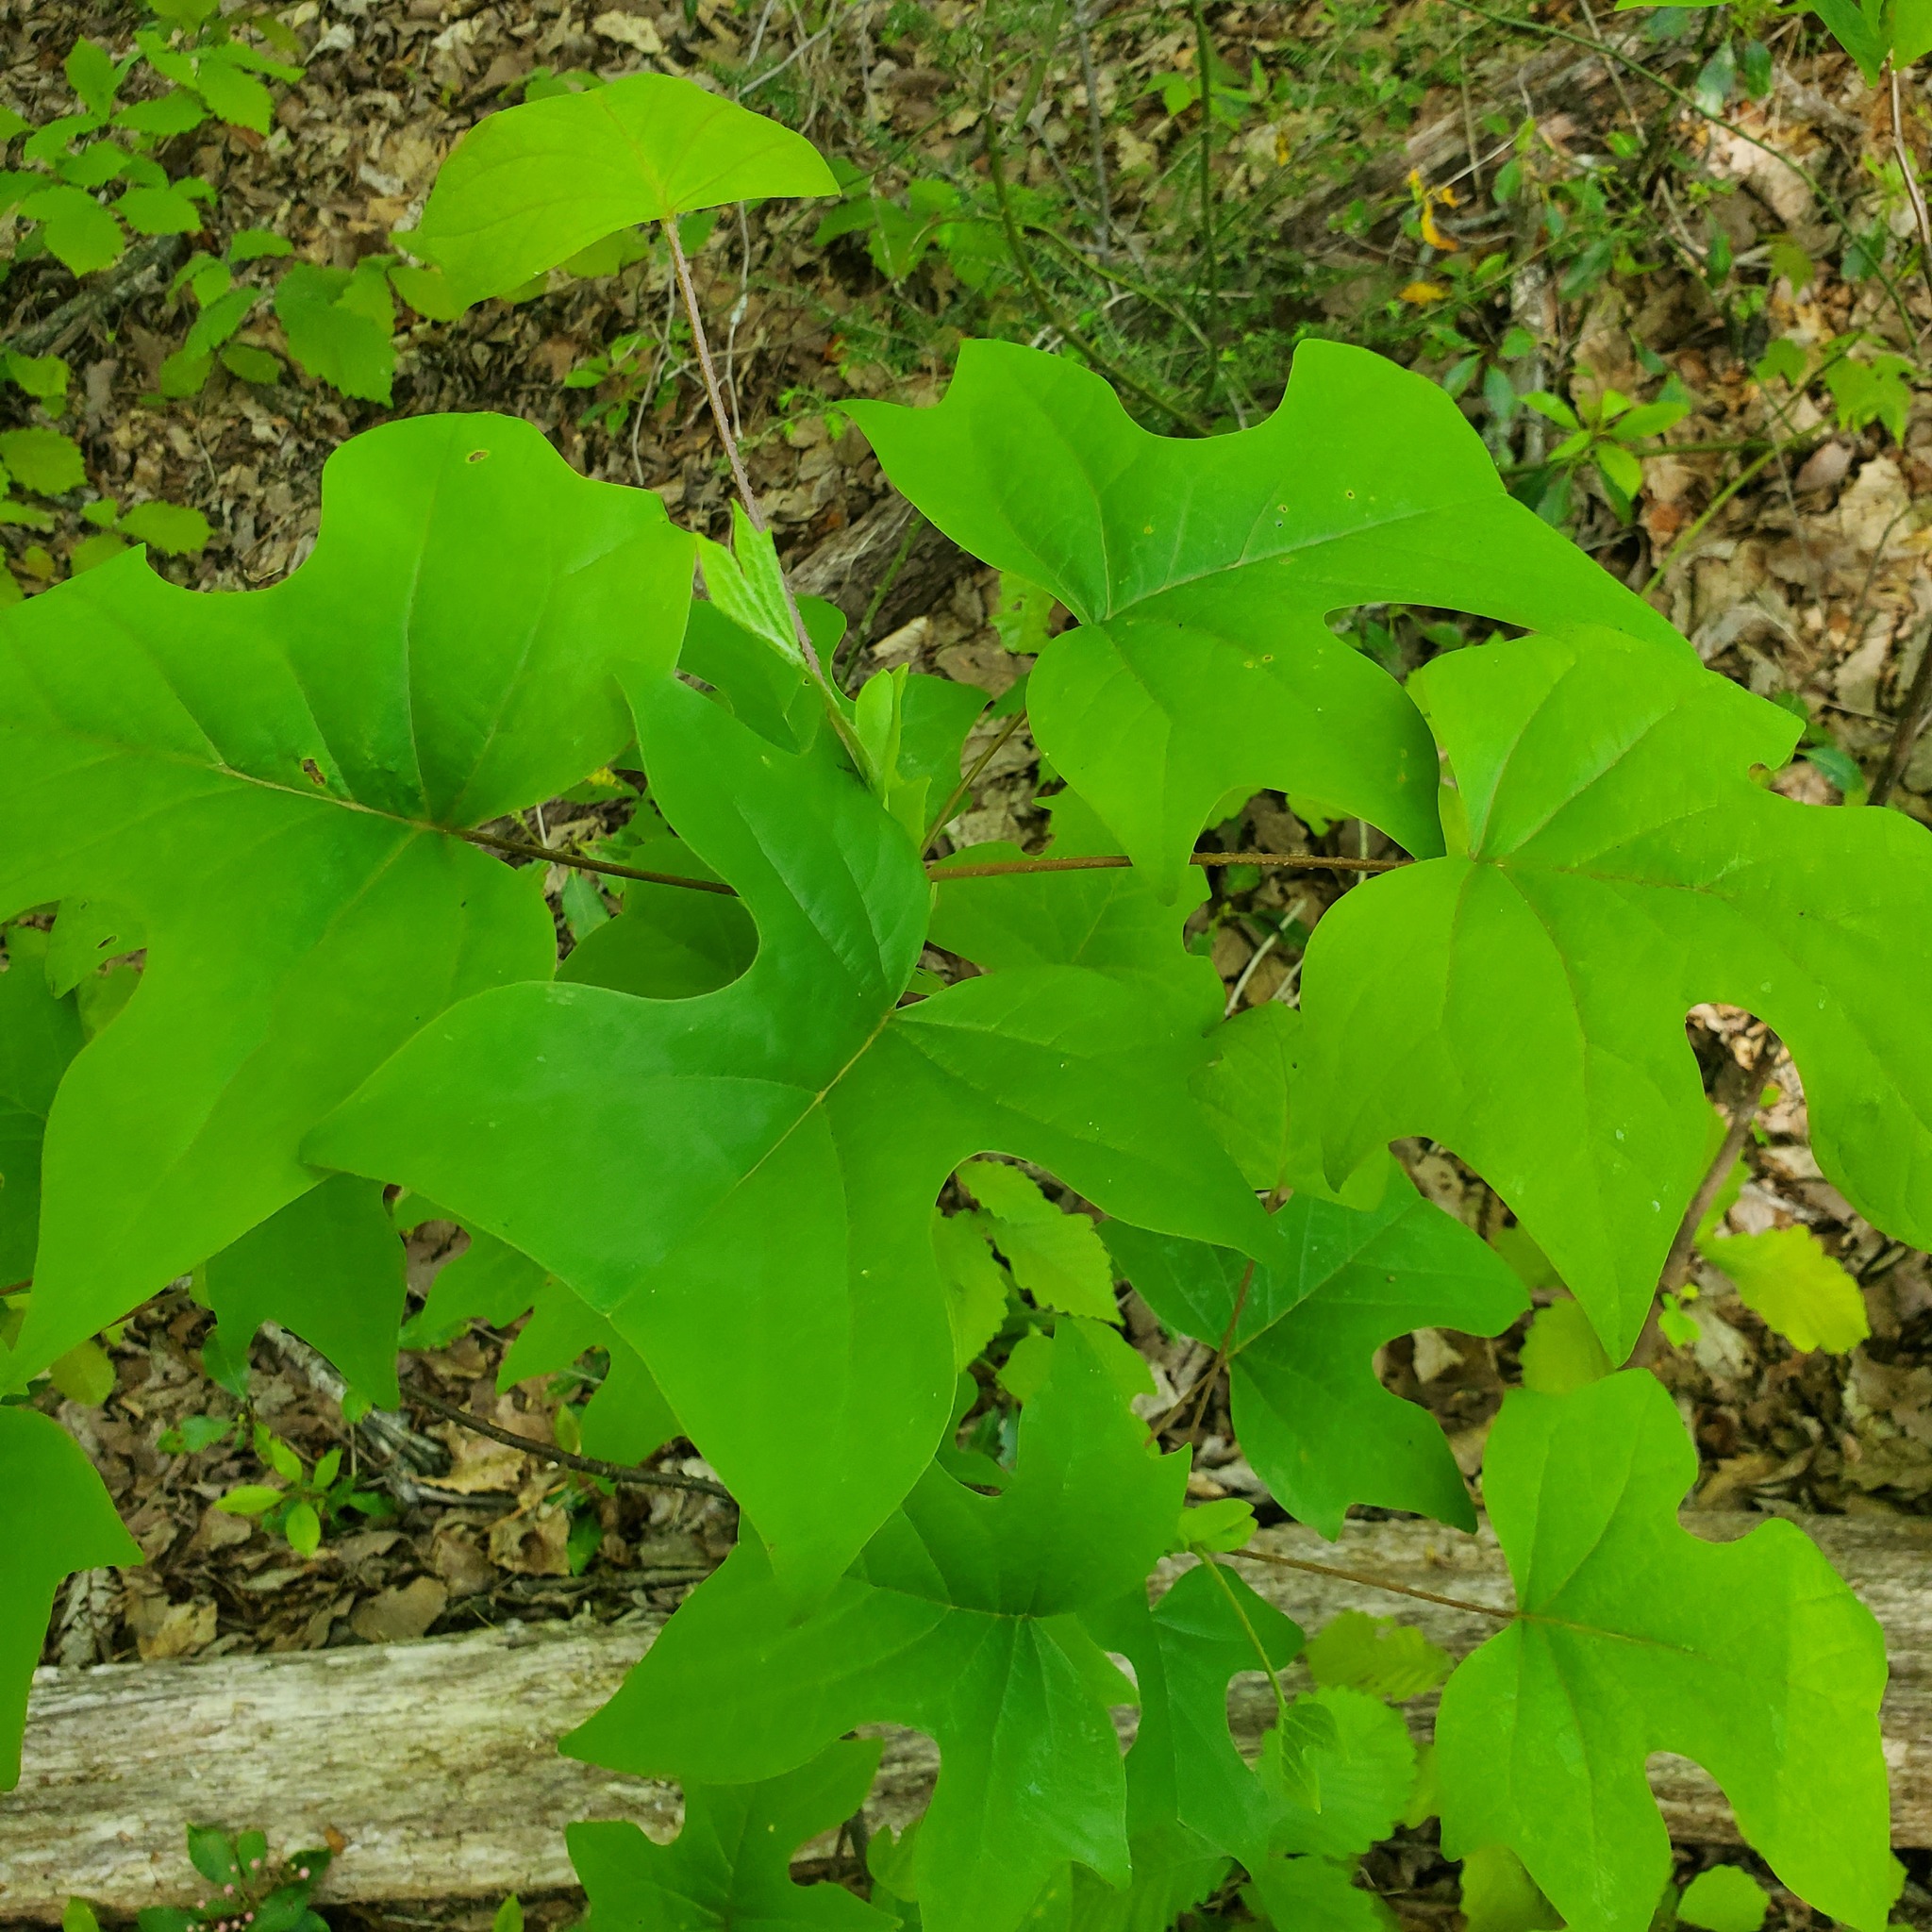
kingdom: Plantae
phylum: Tracheophyta
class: Magnoliopsida
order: Magnoliales
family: Magnoliaceae
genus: Liriodendron
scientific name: Liriodendron tulipifera
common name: Tulip tree
